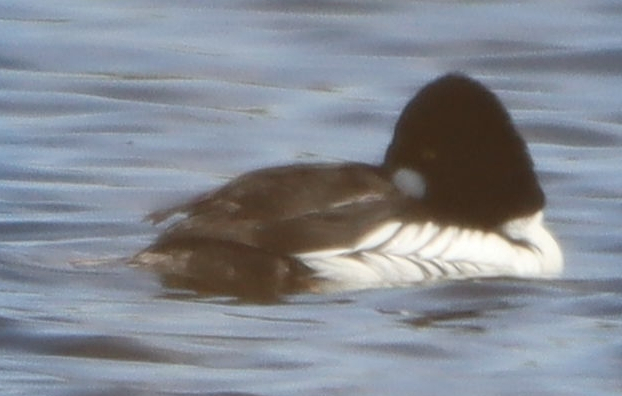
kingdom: Animalia
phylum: Chordata
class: Aves
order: Anseriformes
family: Anatidae
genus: Bucephala
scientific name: Bucephala clangula
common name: Common goldeneye
